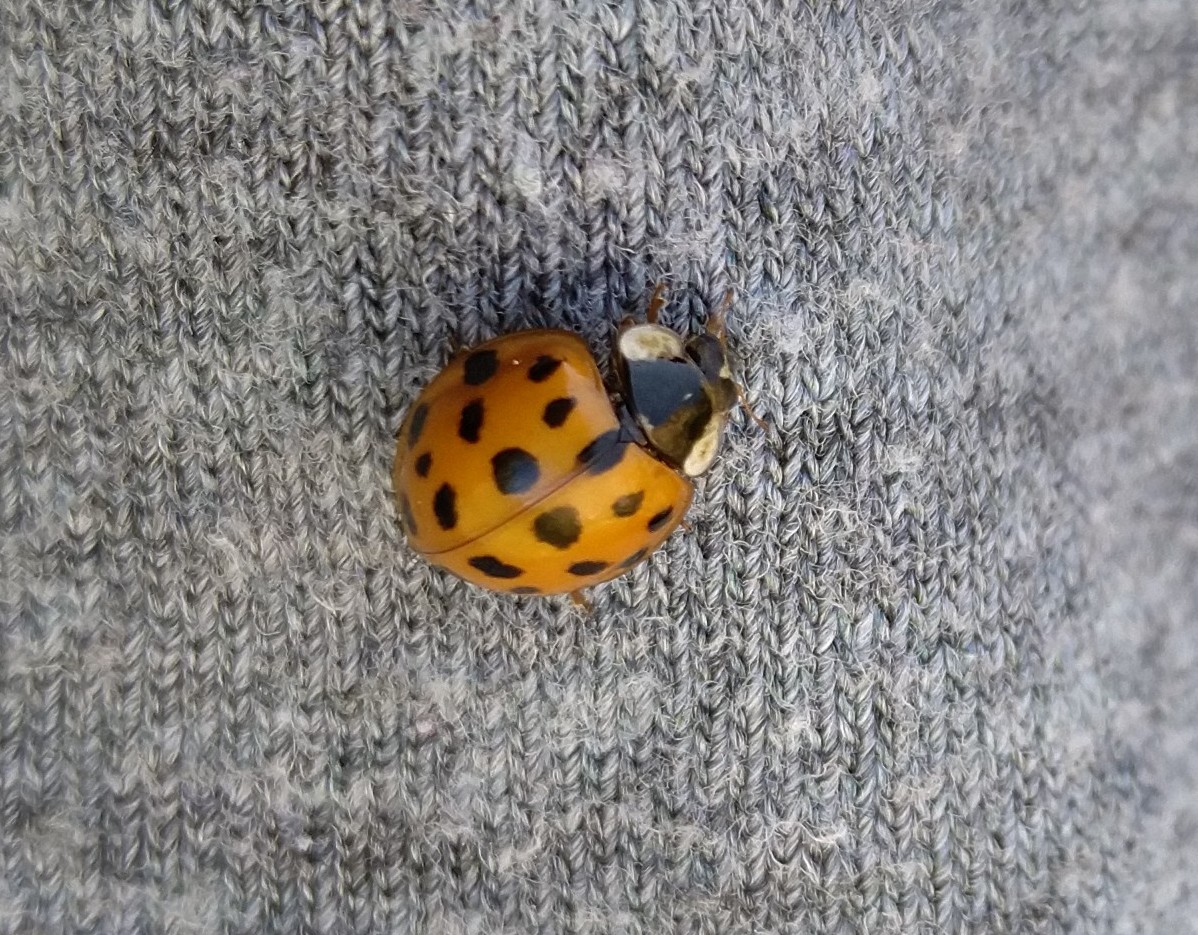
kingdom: Animalia
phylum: Arthropoda
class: Insecta
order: Coleoptera
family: Coccinellidae
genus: Harmonia
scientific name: Harmonia axyridis
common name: Harlequin ladybird
